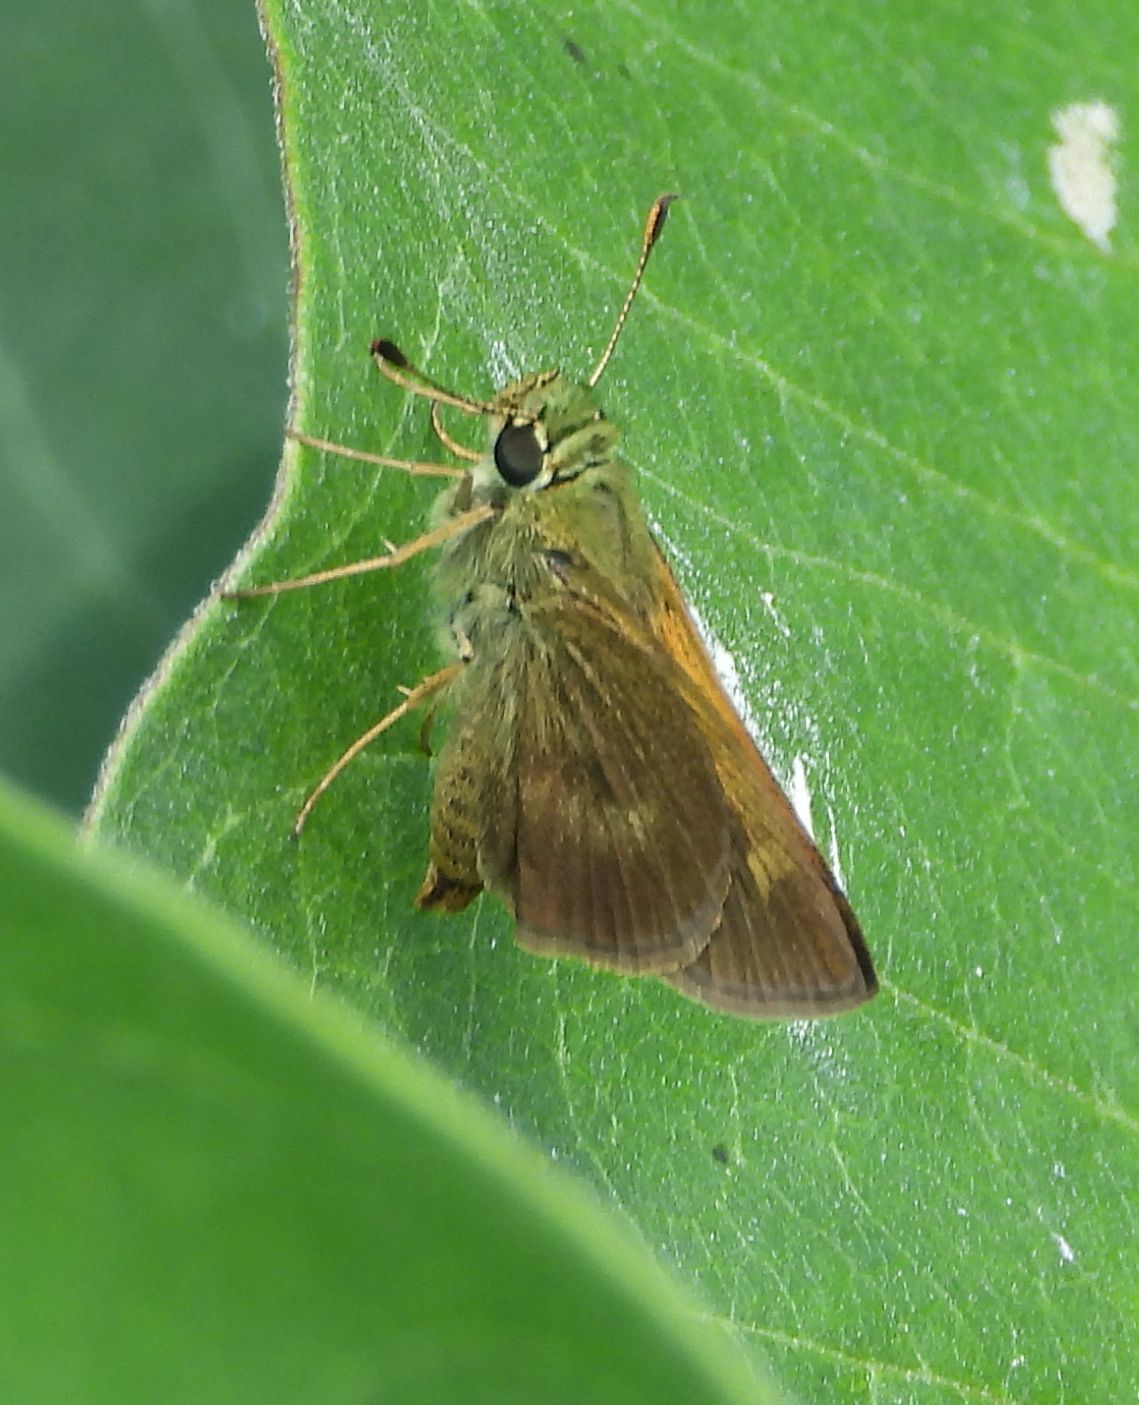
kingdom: Animalia
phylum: Arthropoda
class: Insecta
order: Lepidoptera
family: Hesperiidae
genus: Polites
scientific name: Polites egeremet
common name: Northern broken-dash
